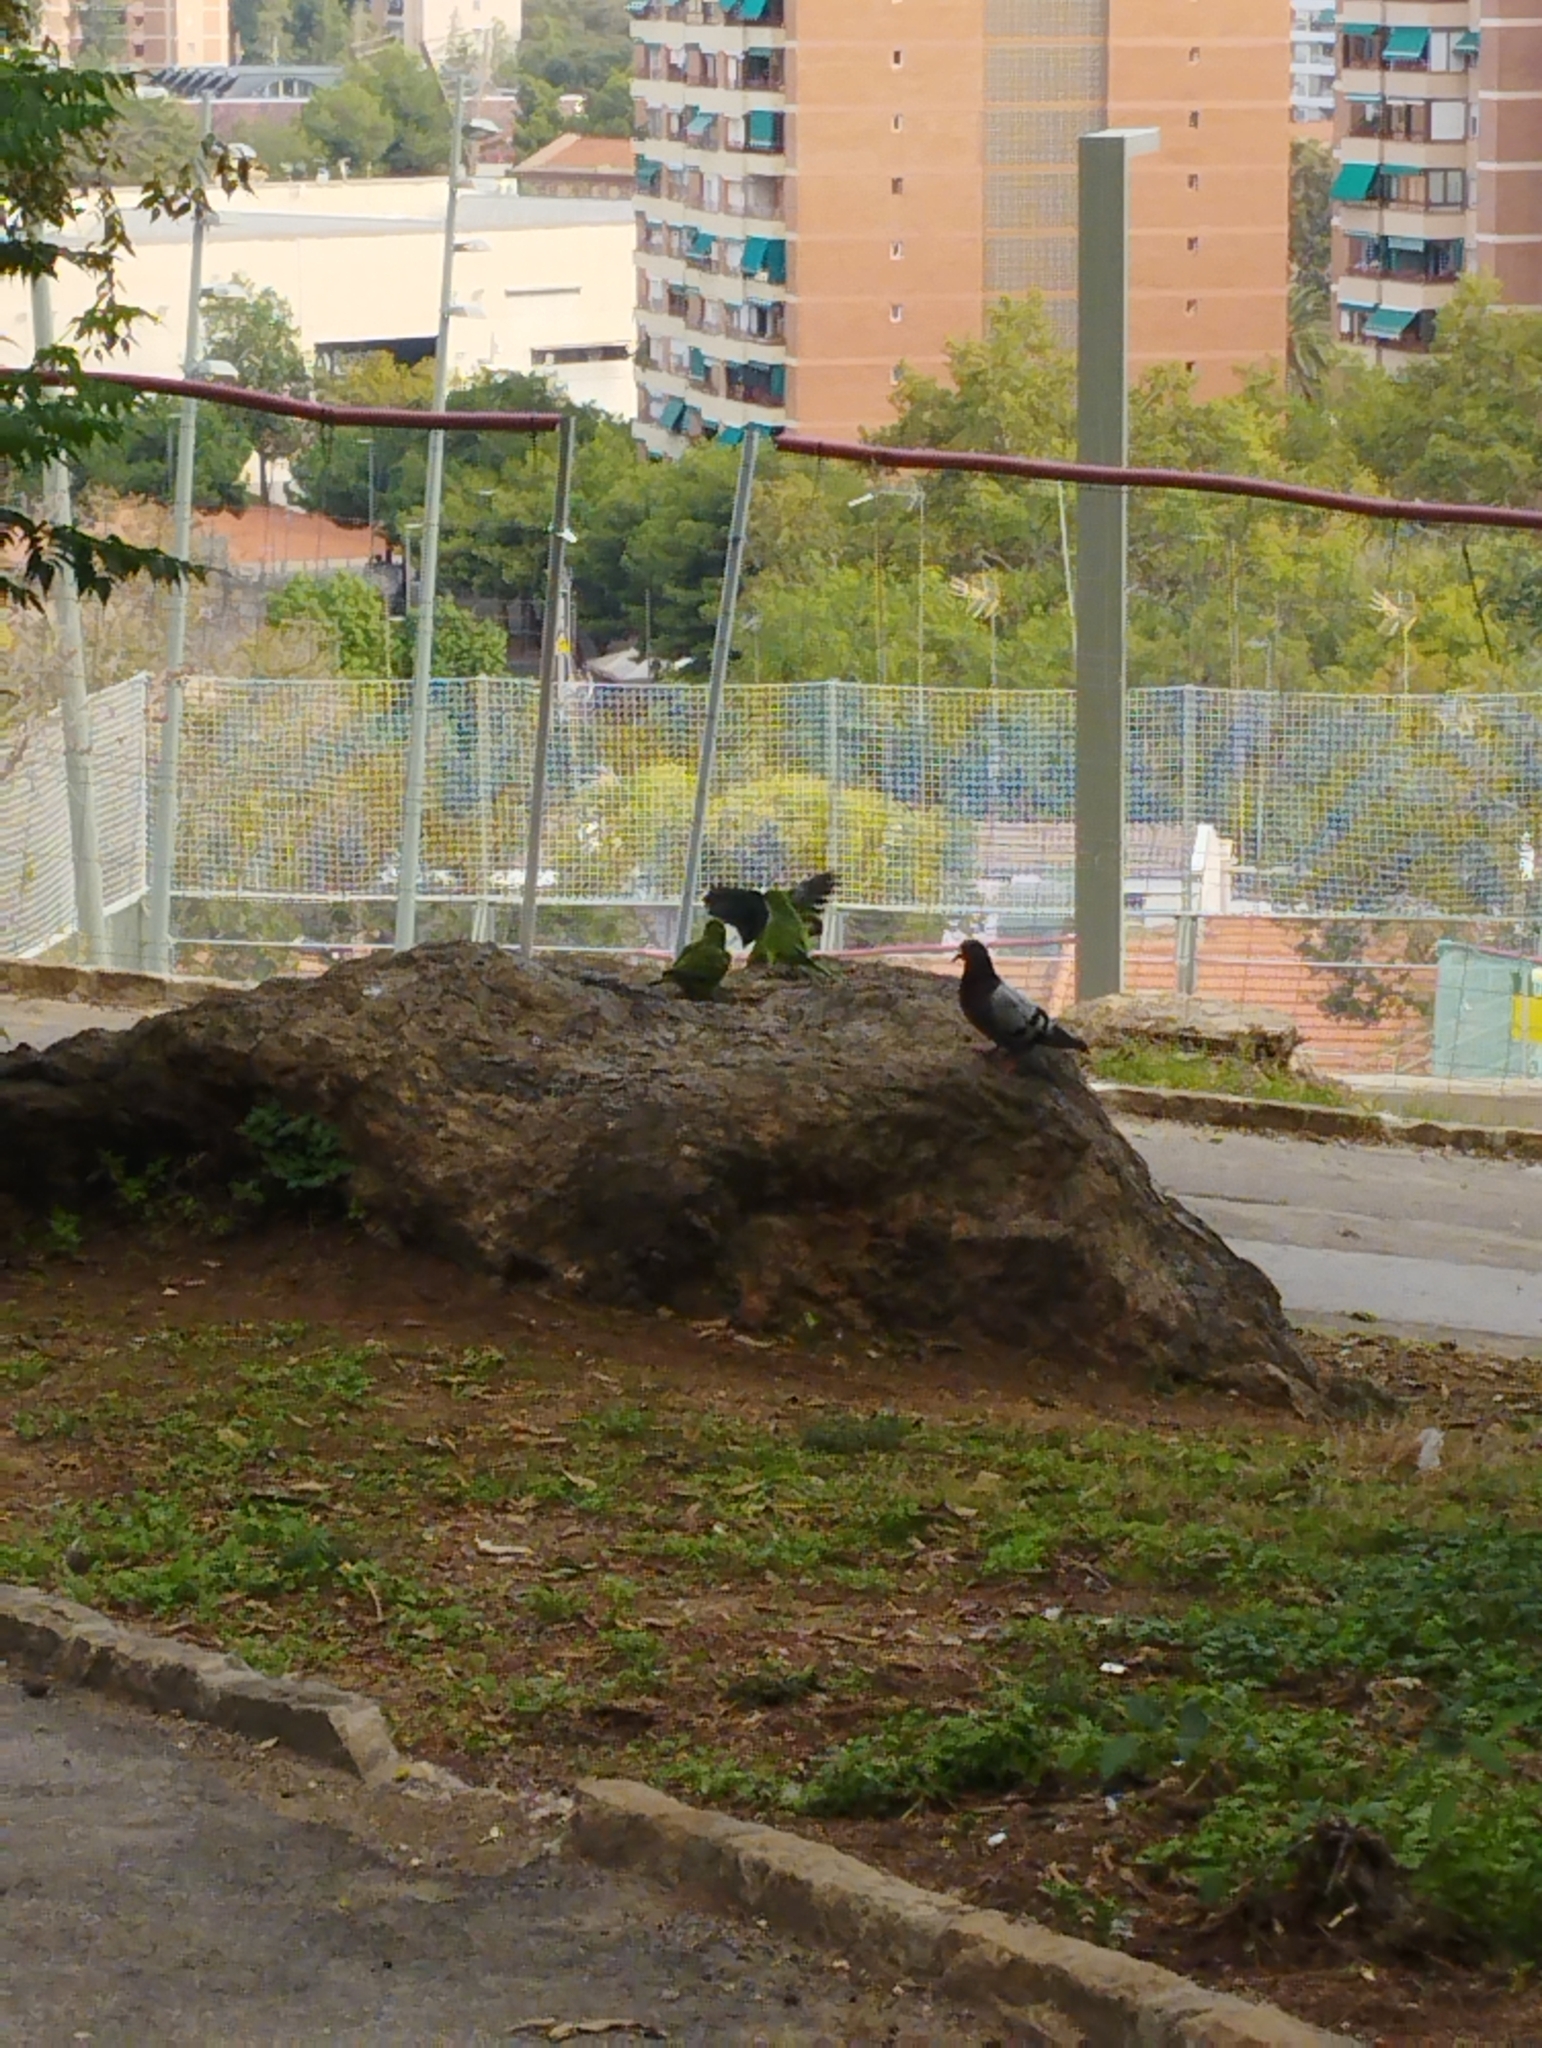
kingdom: Animalia
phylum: Chordata
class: Aves
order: Columbiformes
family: Columbidae
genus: Columba
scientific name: Columba livia
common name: Rock pigeon
